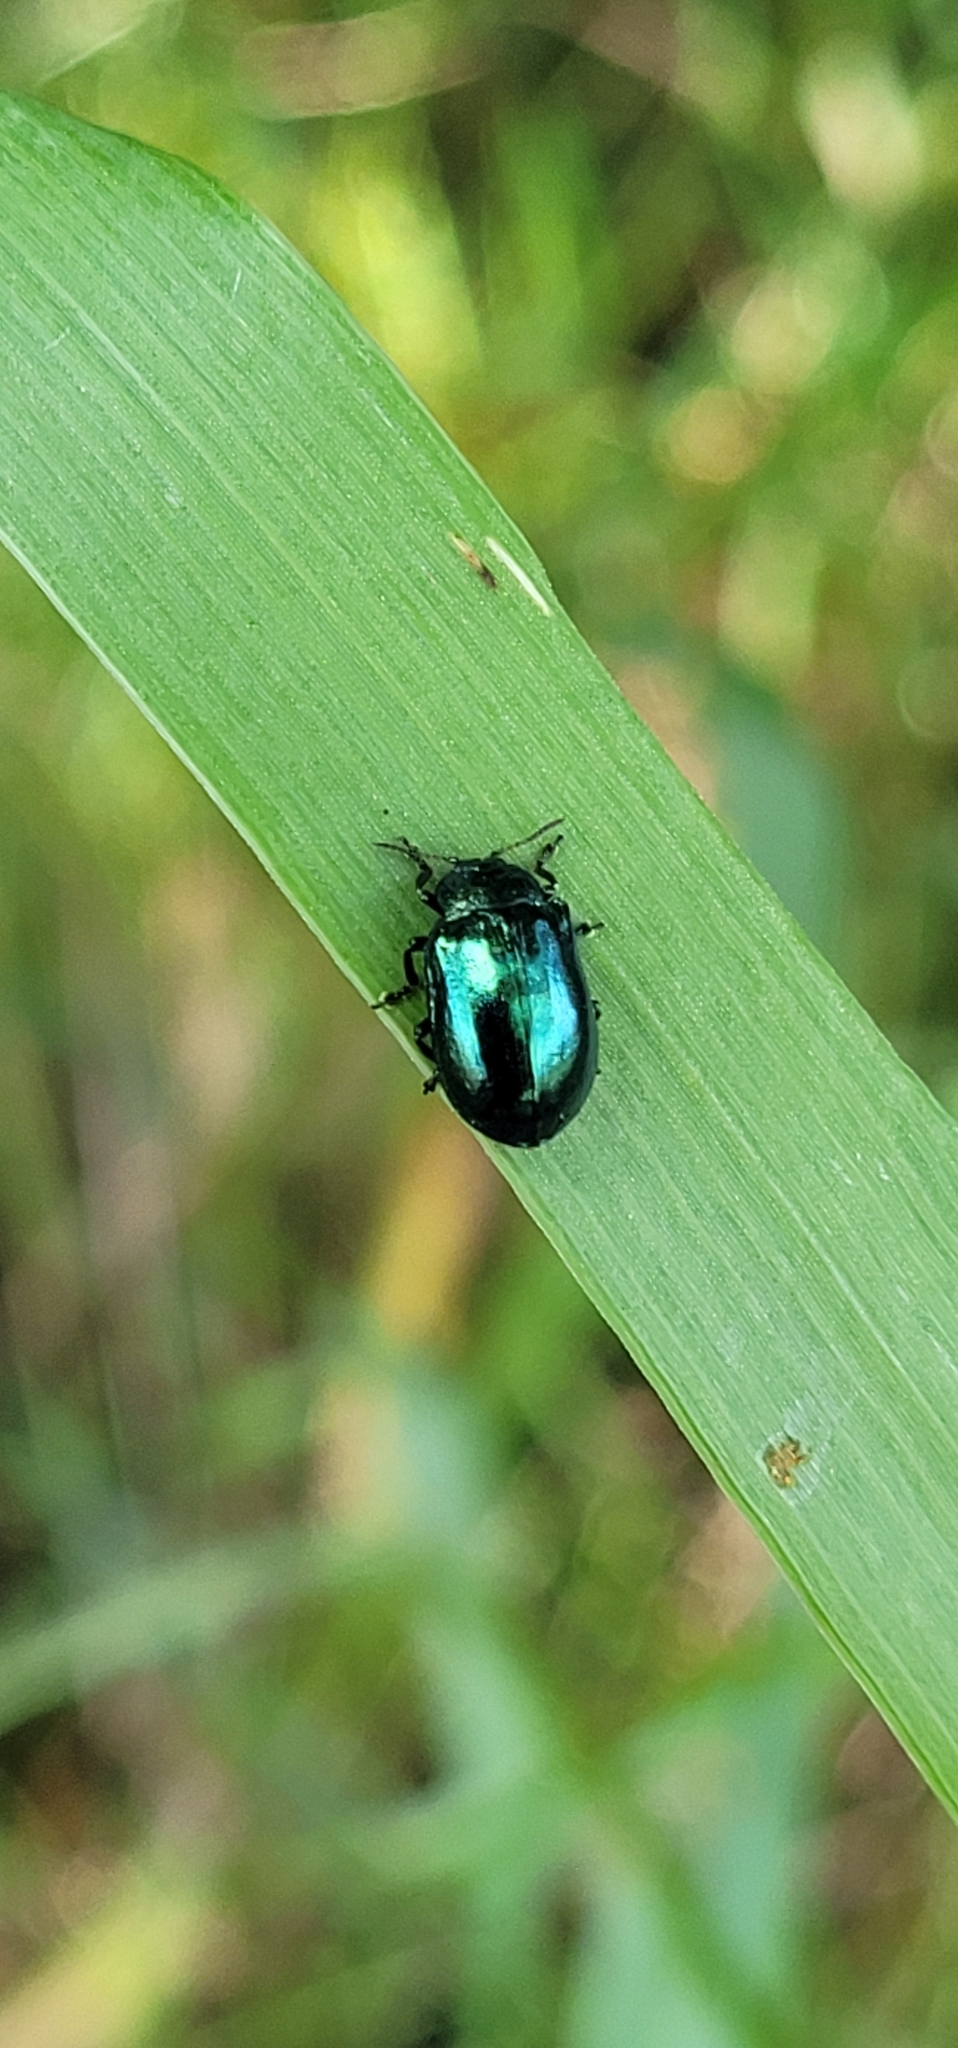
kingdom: Animalia
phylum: Arthropoda
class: Insecta
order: Coleoptera
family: Chrysomelidae
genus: Plagiosterna
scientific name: Plagiosterna aenea
